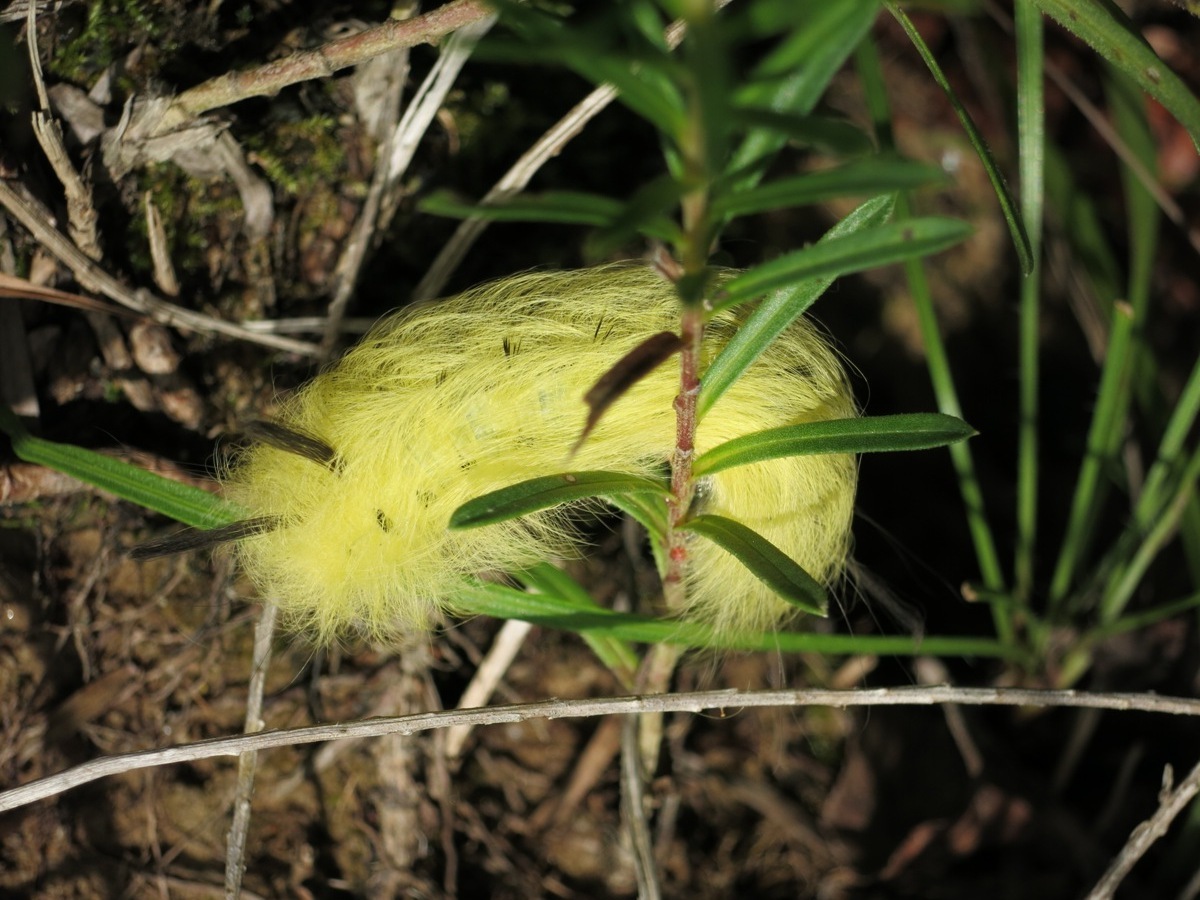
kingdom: Animalia
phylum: Arthropoda
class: Insecta
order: Lepidoptera
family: Apatelodidae
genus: Hygrochroa
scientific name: Hygrochroa Apatelodes torrefacta
